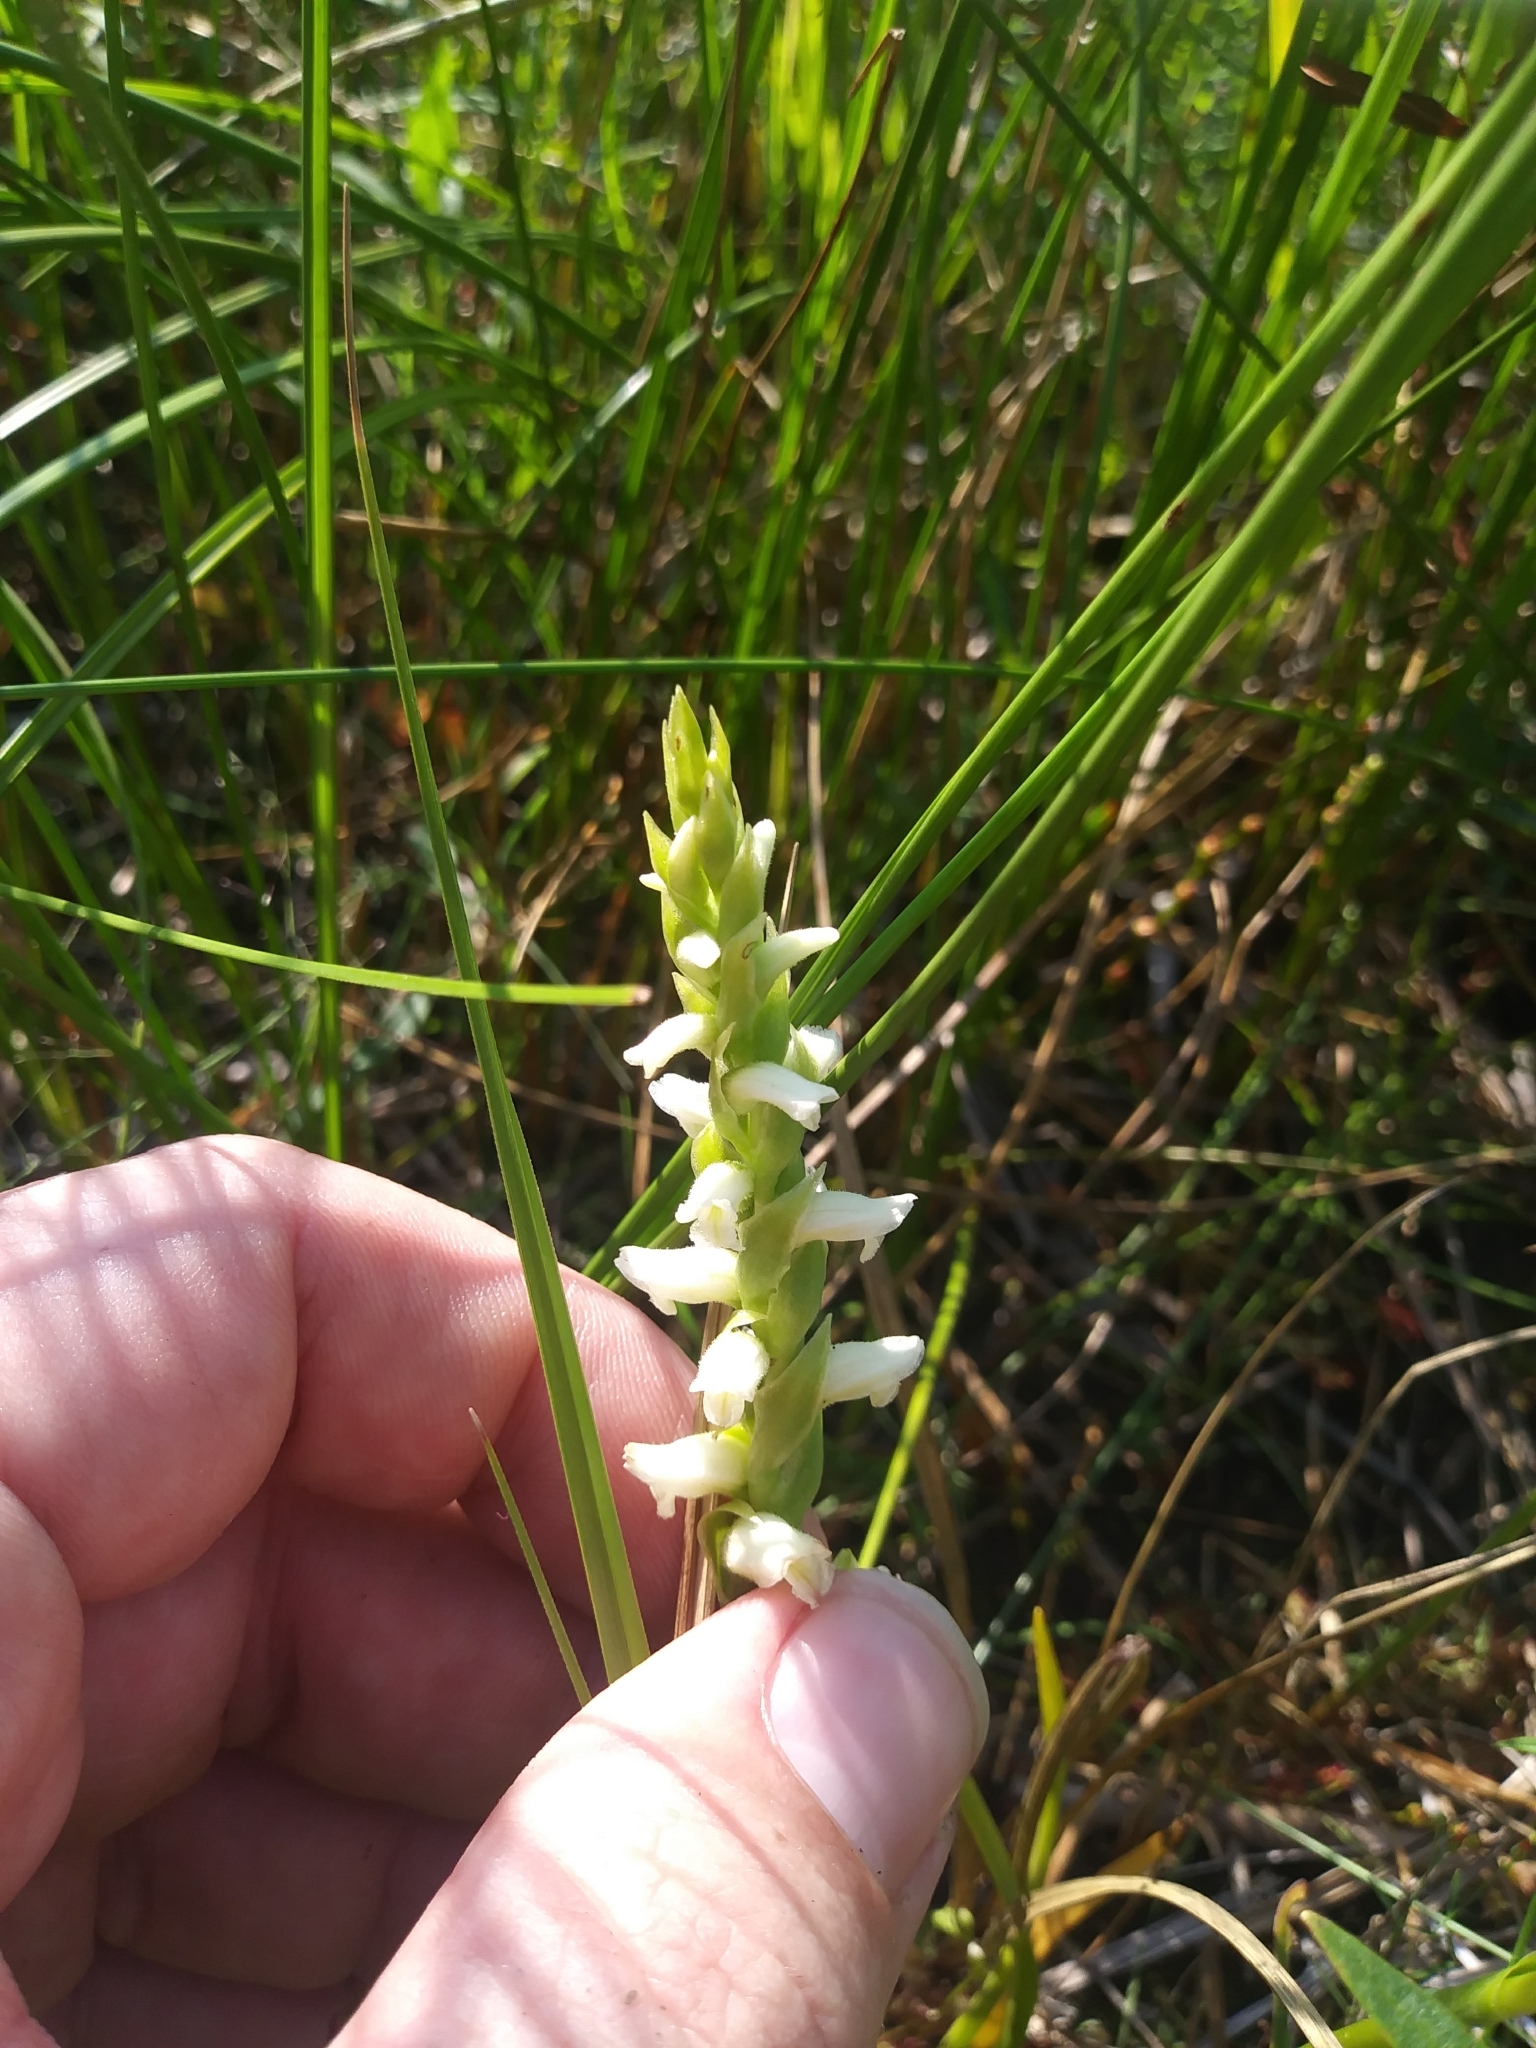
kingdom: Plantae
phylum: Tracheophyta
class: Liliopsida
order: Asparagales
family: Orchidaceae
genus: Spiranthes
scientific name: Spiranthes romanzoffiana
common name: Irish lady's-tresses
